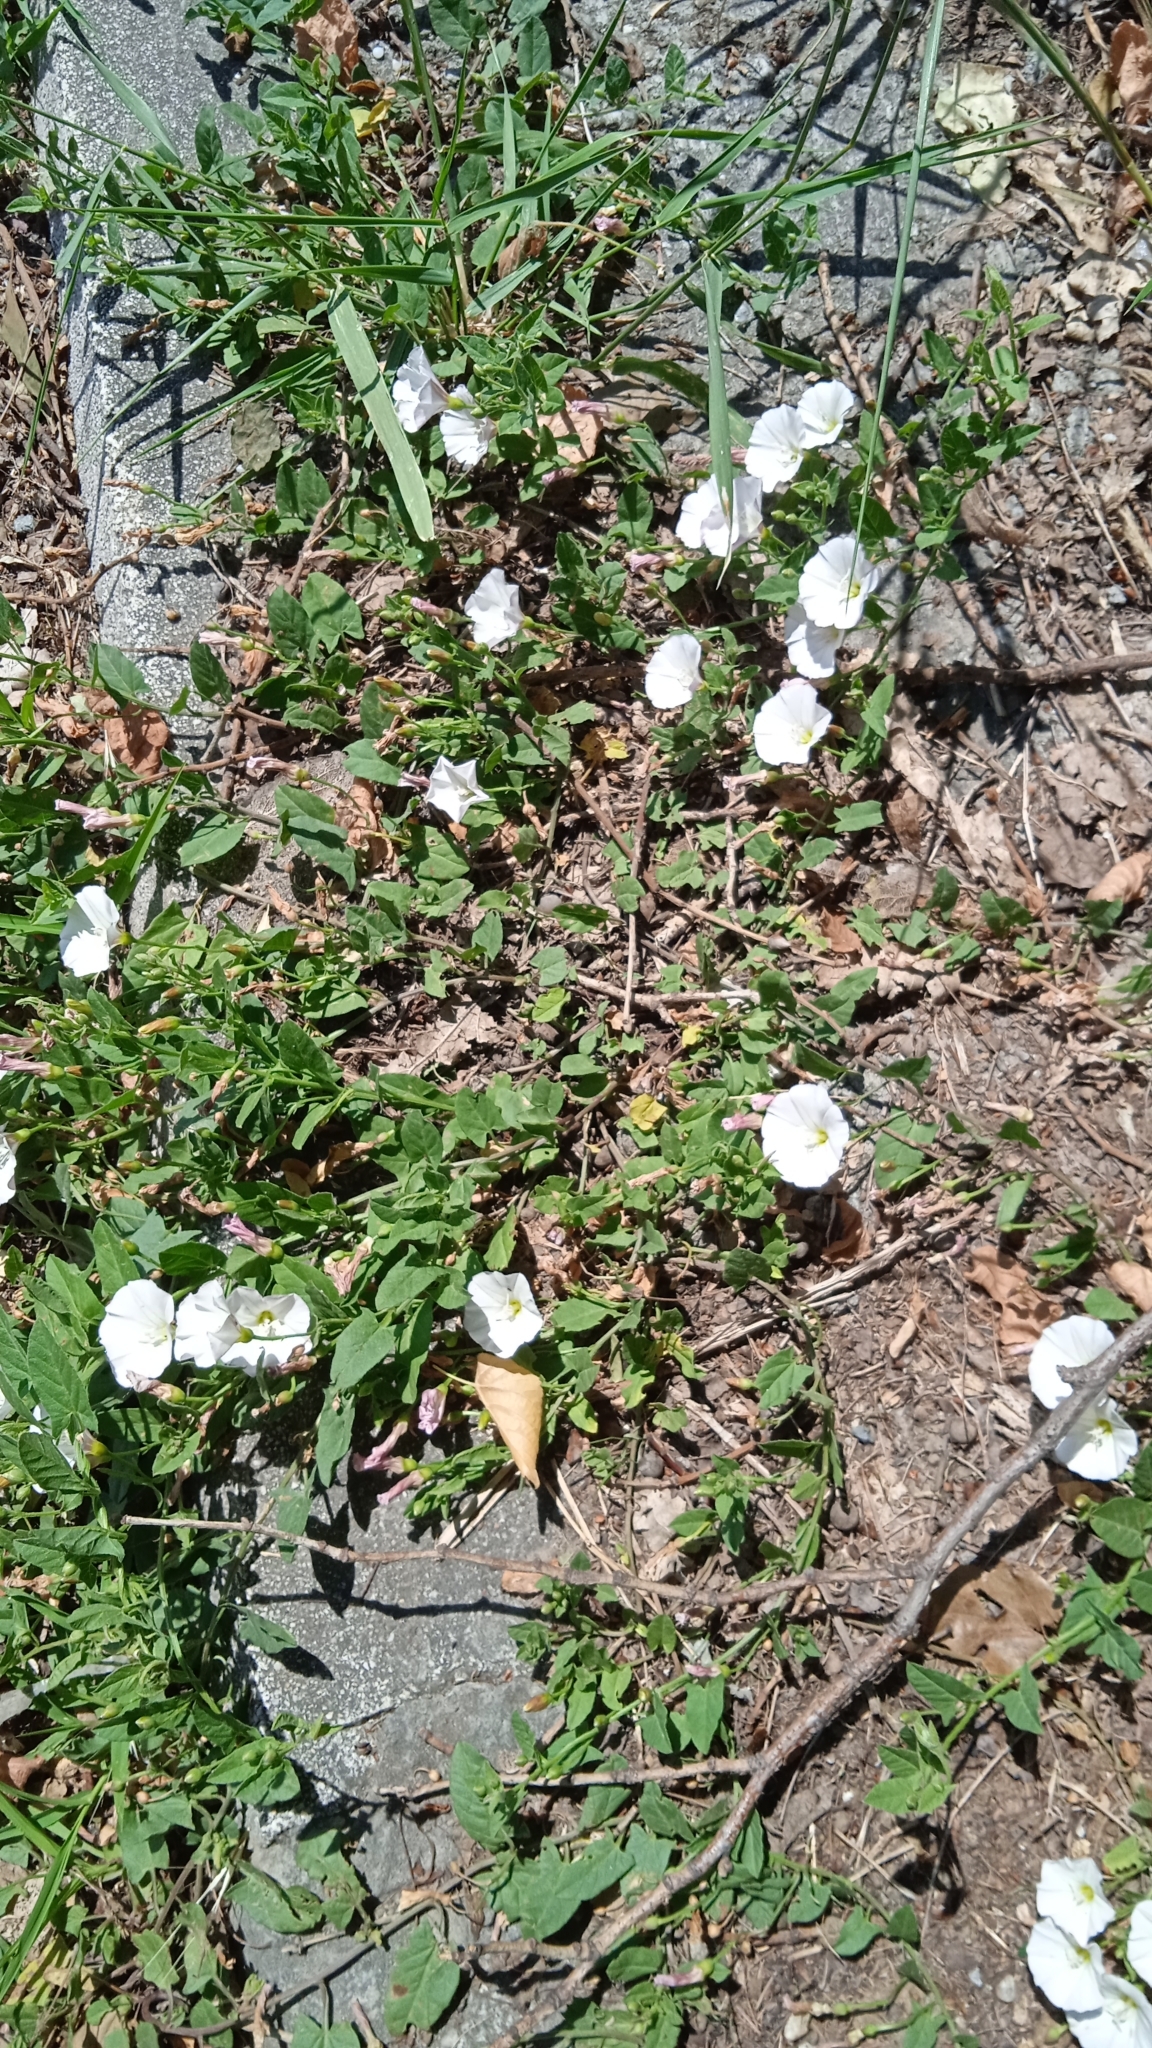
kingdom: Plantae
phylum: Tracheophyta
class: Magnoliopsida
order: Solanales
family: Convolvulaceae
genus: Convolvulus
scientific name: Convolvulus arvensis
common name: Field bindweed
